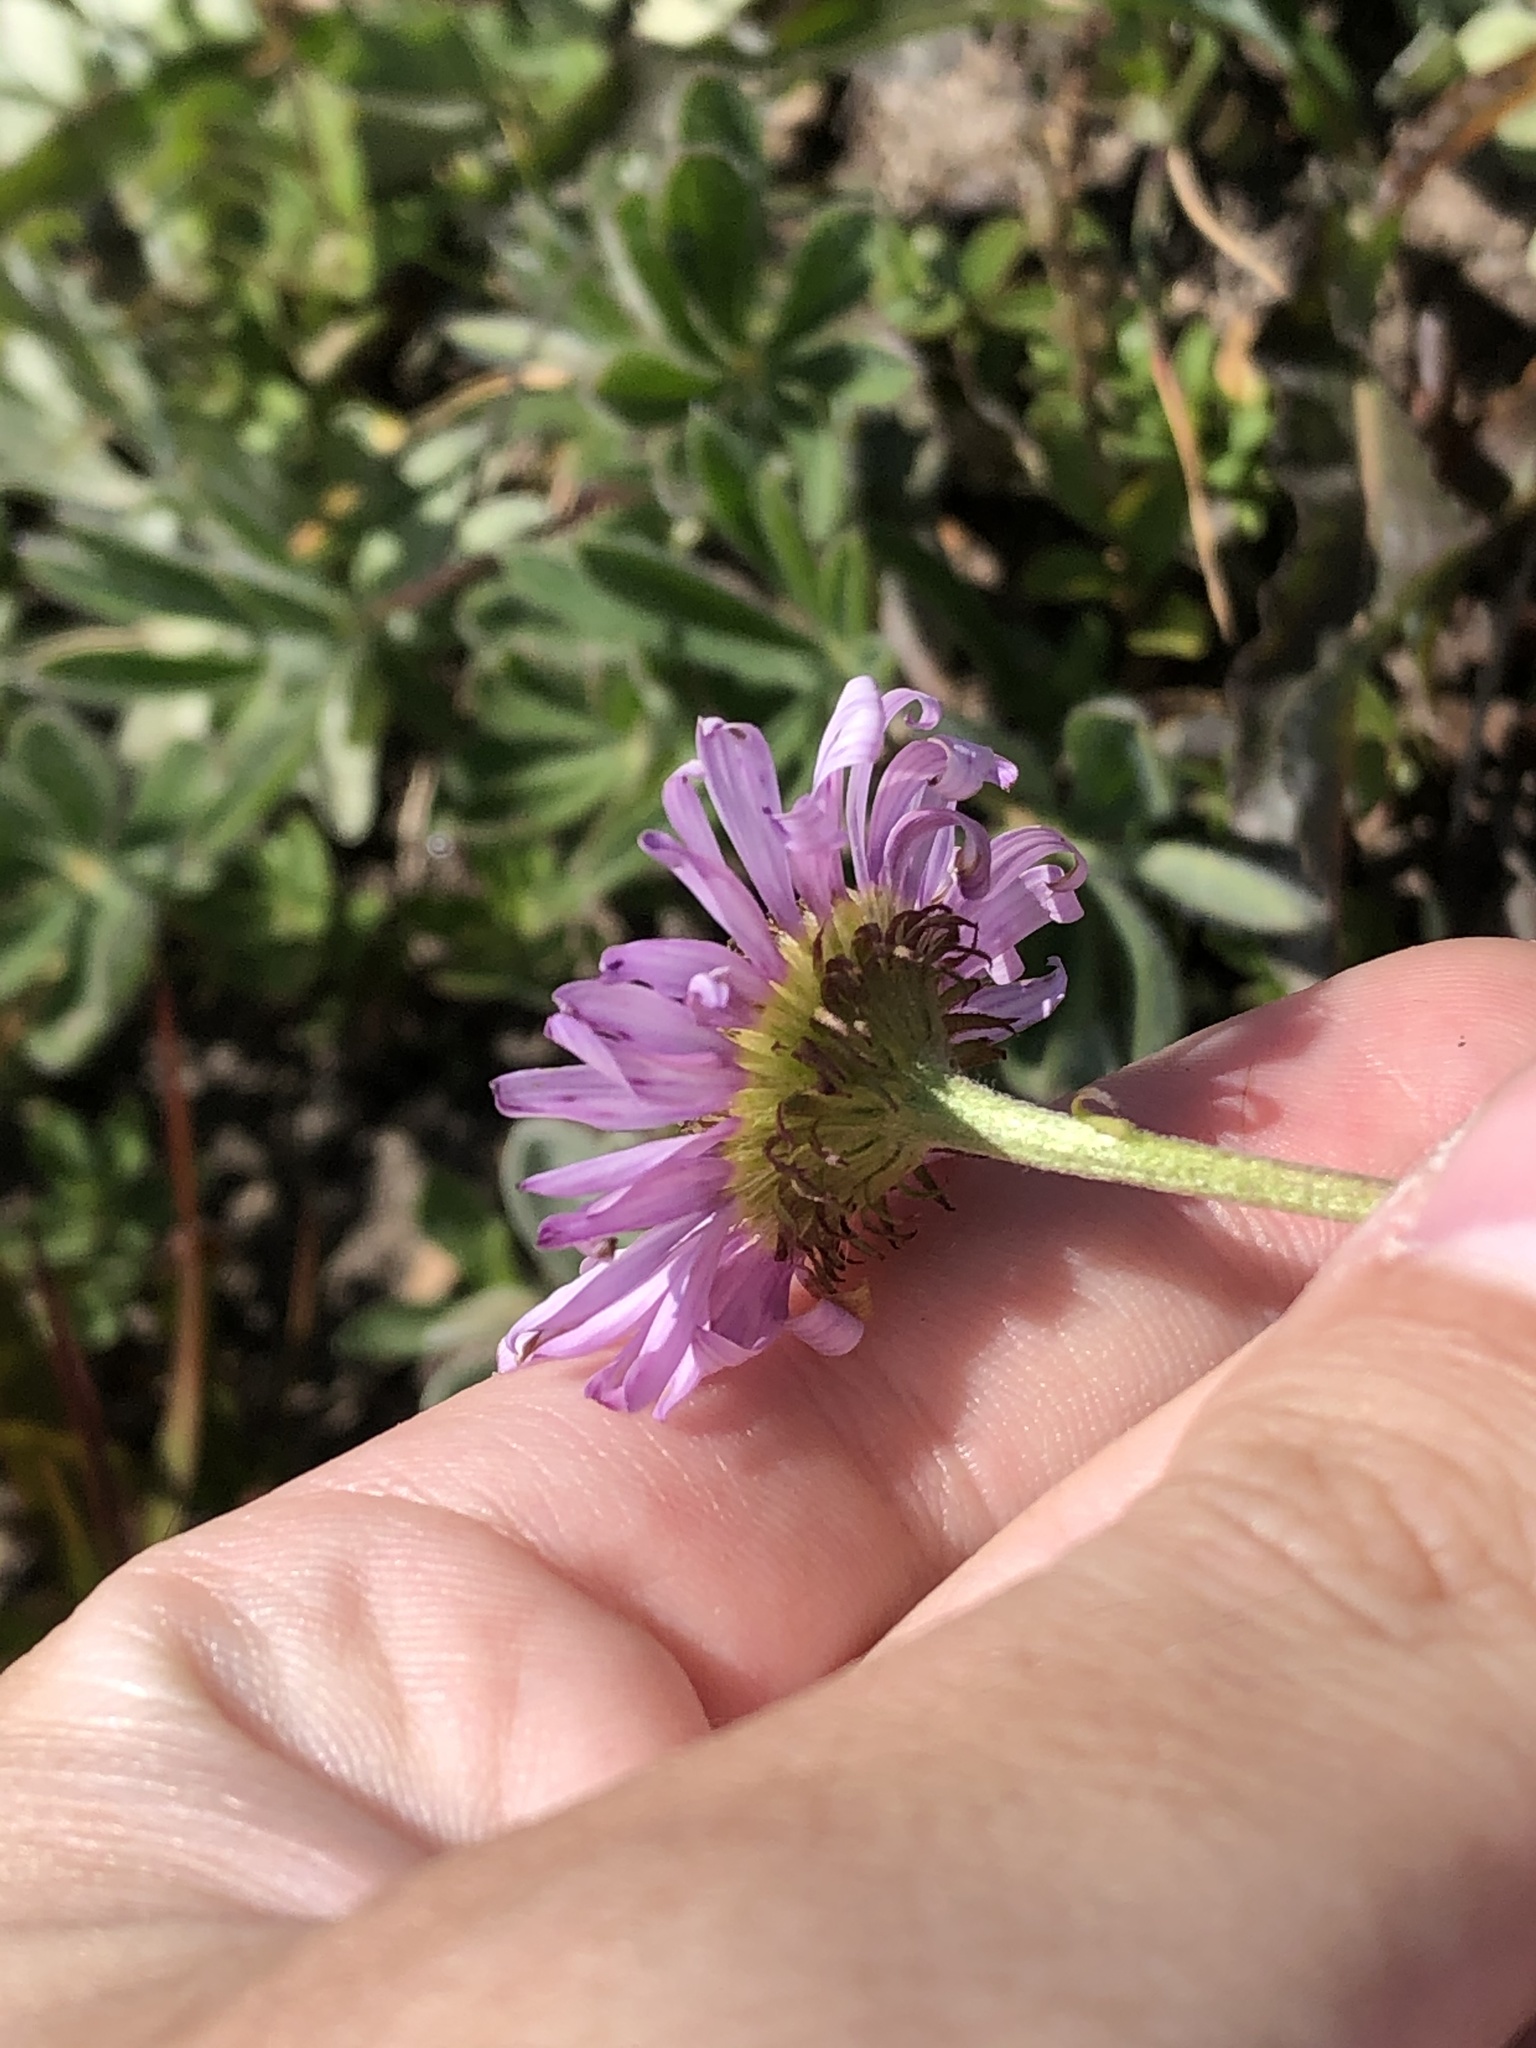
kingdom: Plantae
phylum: Tracheophyta
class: Magnoliopsida
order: Asterales
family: Asteraceae
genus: Erigeron
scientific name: Erigeron glacialis
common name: Subalpine fleabane
